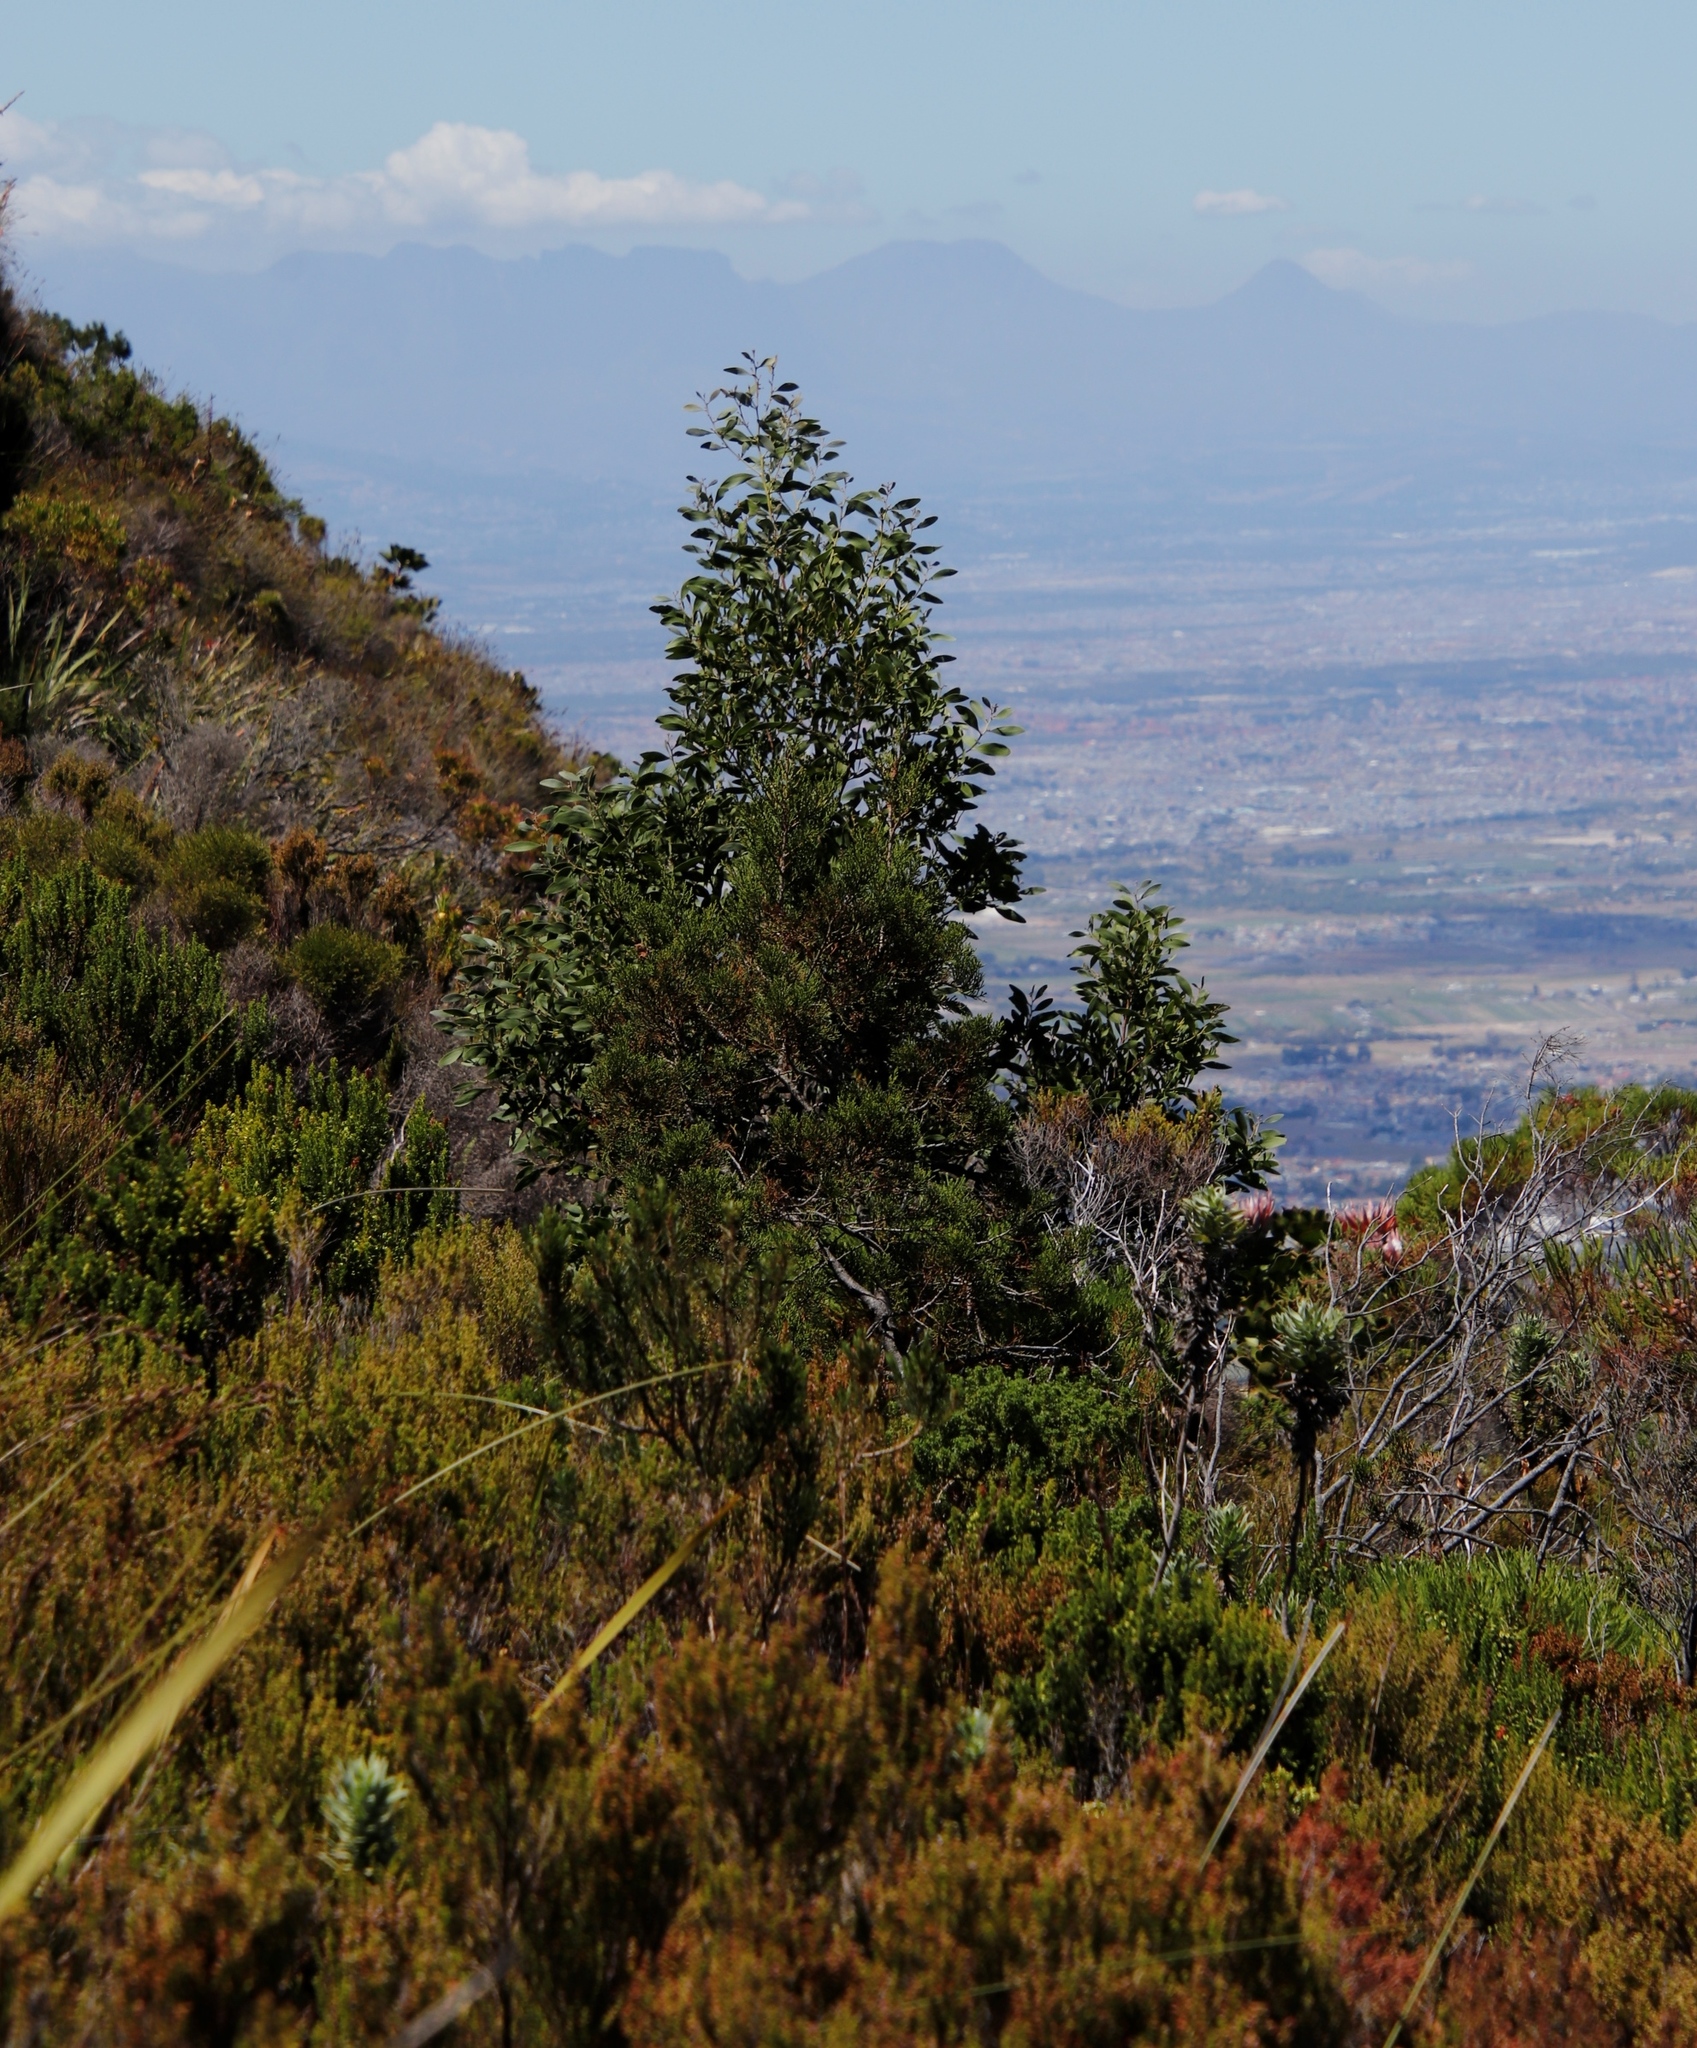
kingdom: Plantae
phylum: Tracheophyta
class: Magnoliopsida
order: Fabales
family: Fabaceae
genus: Acacia
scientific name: Acacia melanoxylon
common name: Blackwood
